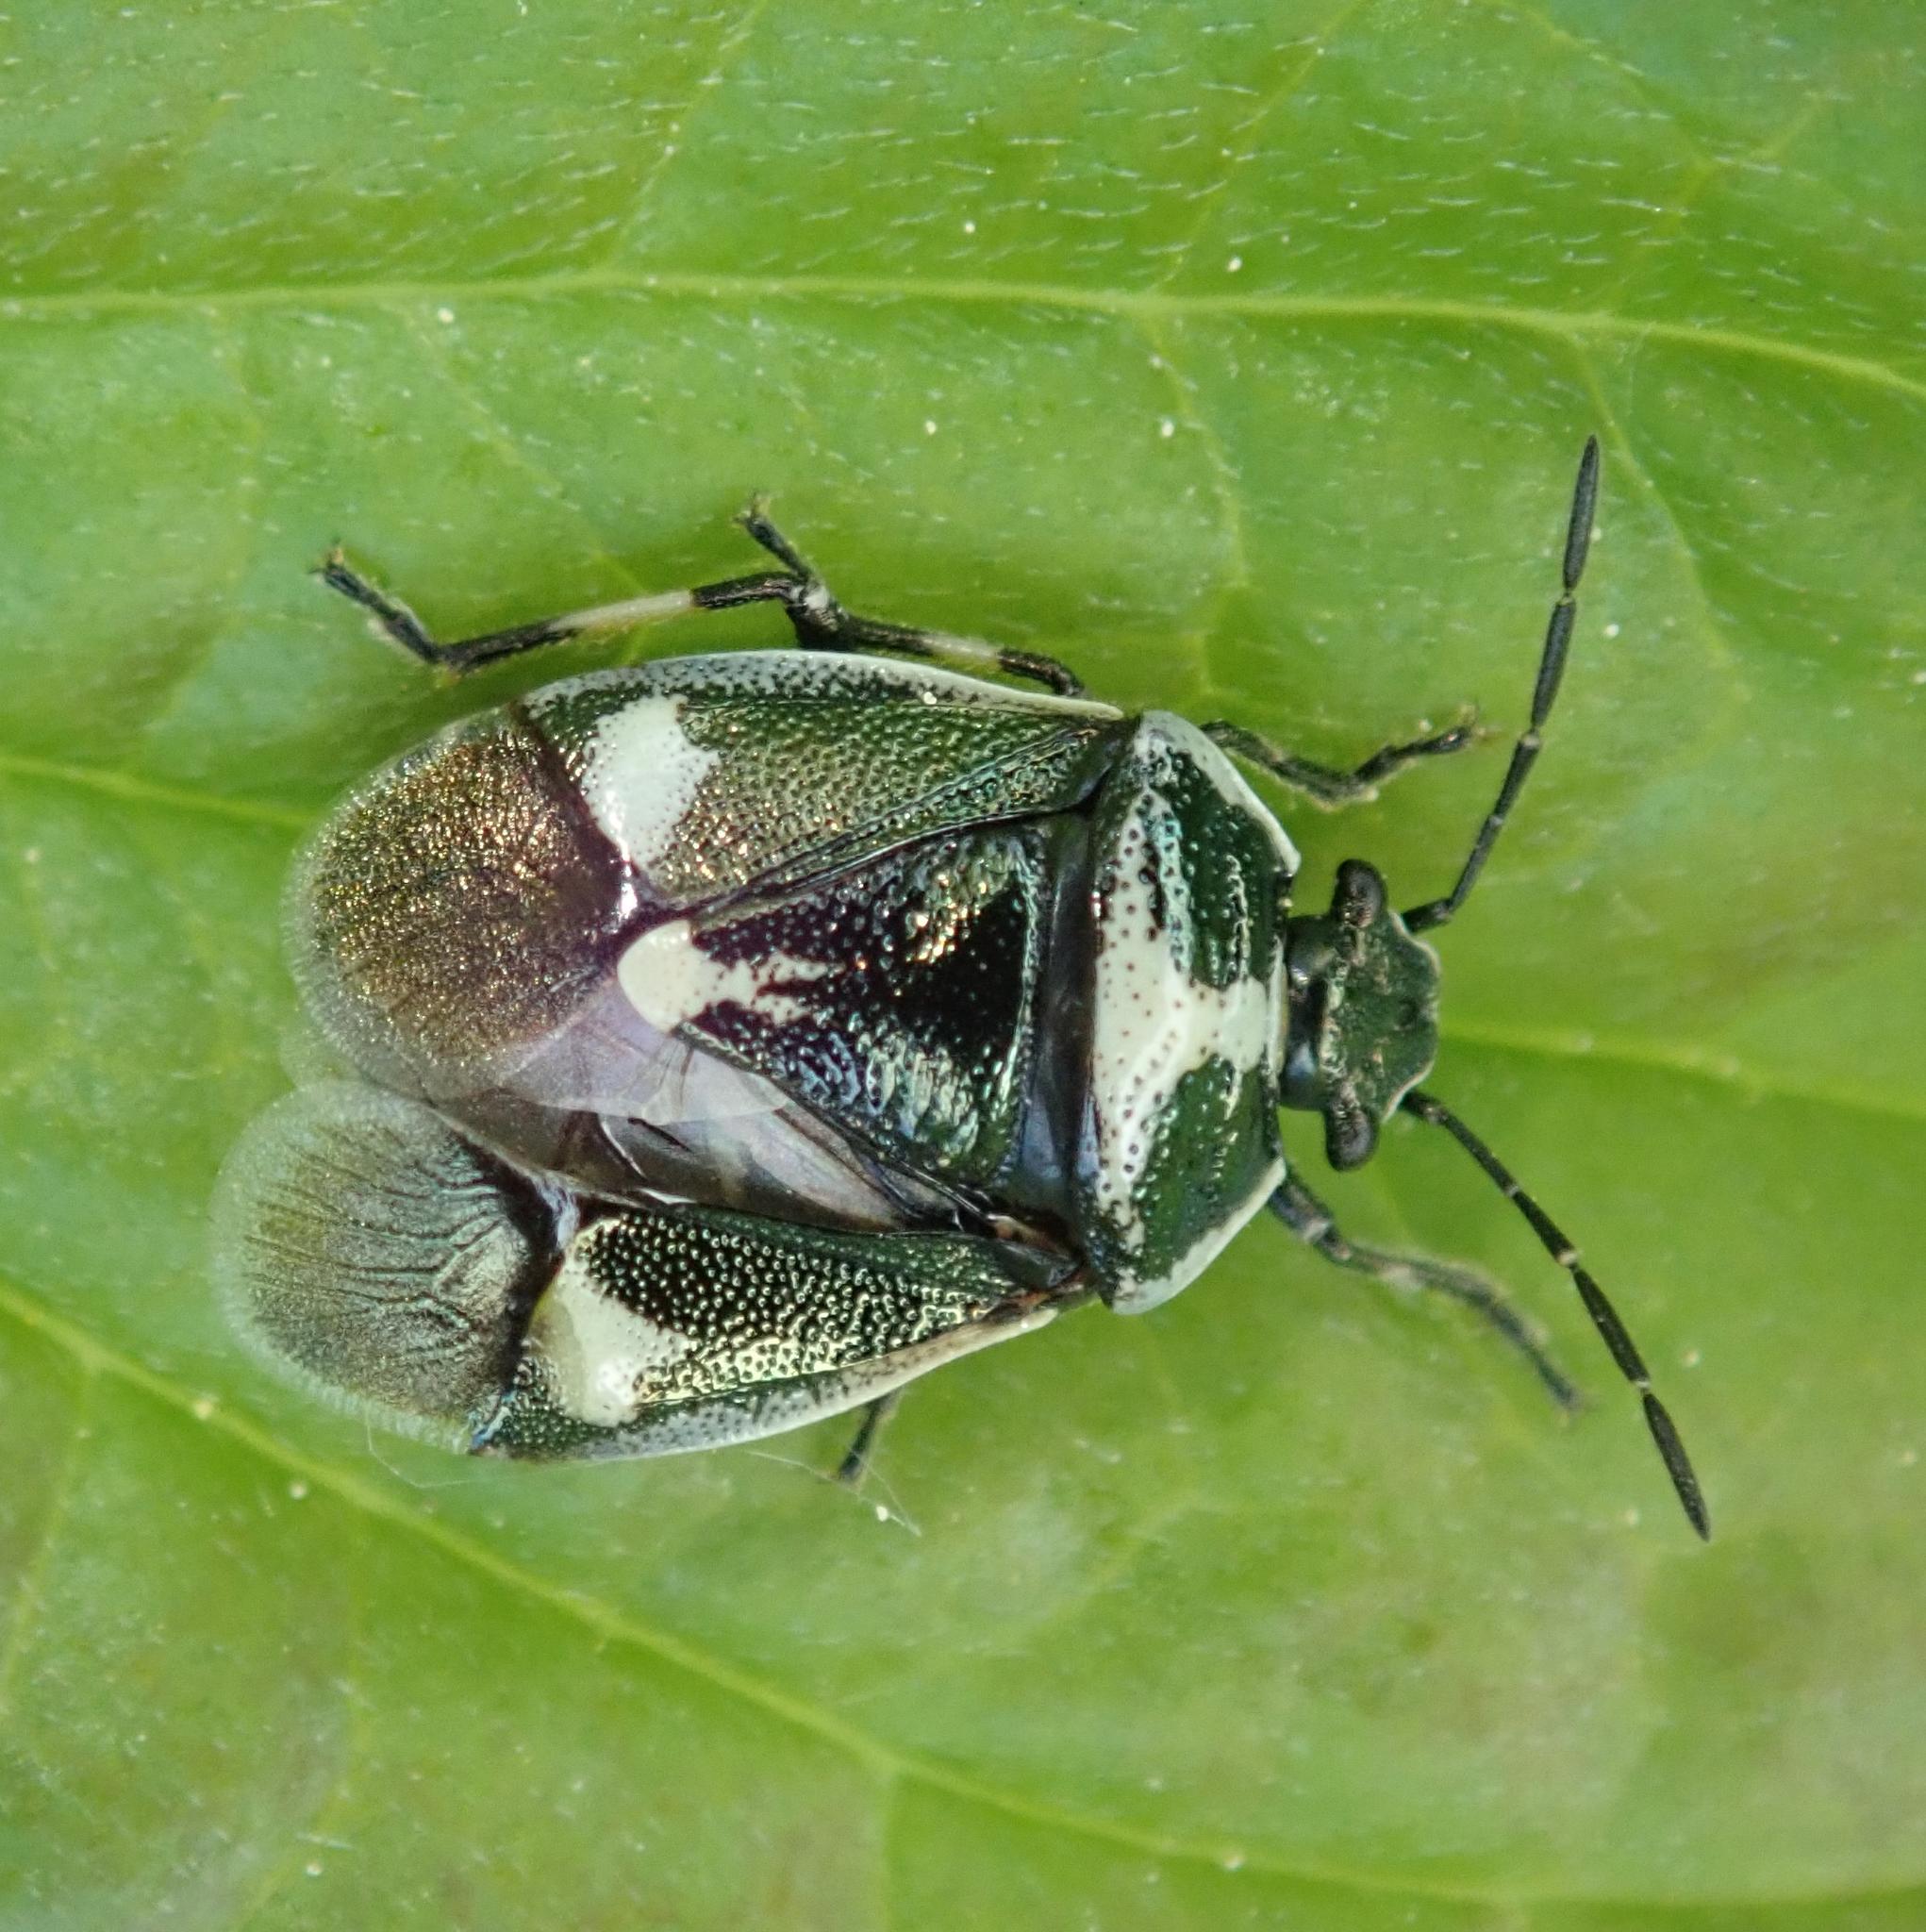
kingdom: Animalia
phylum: Arthropoda
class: Insecta
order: Hemiptera
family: Pentatomidae
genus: Eurydema
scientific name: Eurydema oleracea
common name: Cabbage bug
